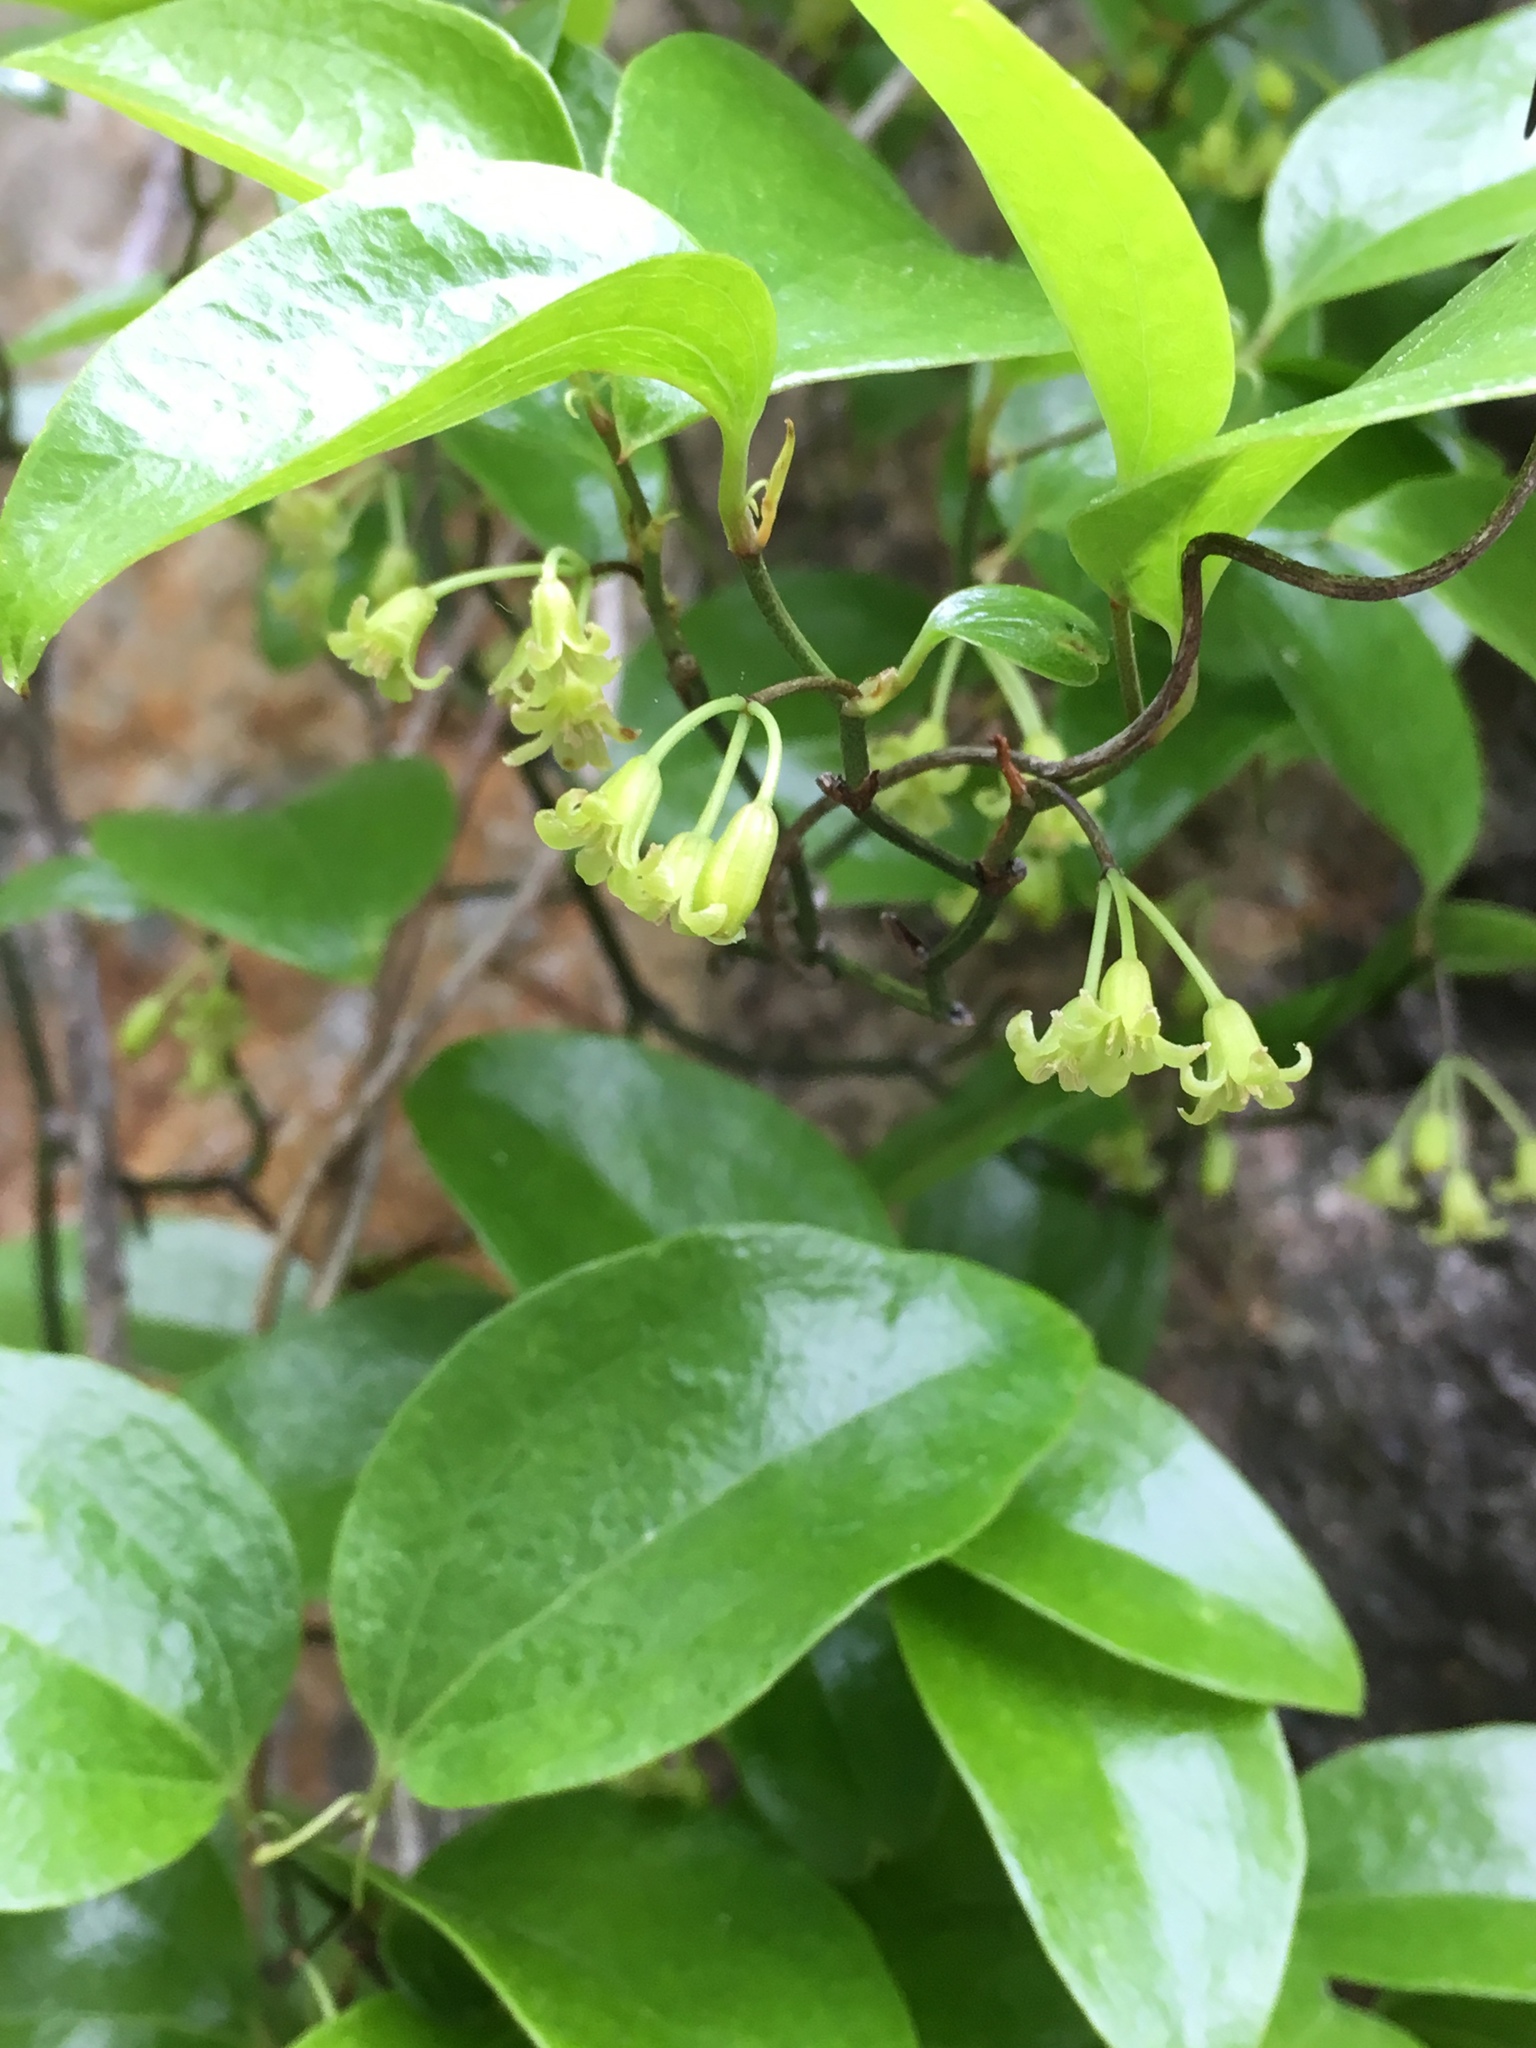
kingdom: Plantae
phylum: Tracheophyta
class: Liliopsida
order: Liliales
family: Smilacaceae
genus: Smilax
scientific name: Smilax rotundifolia
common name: Bullbriar
